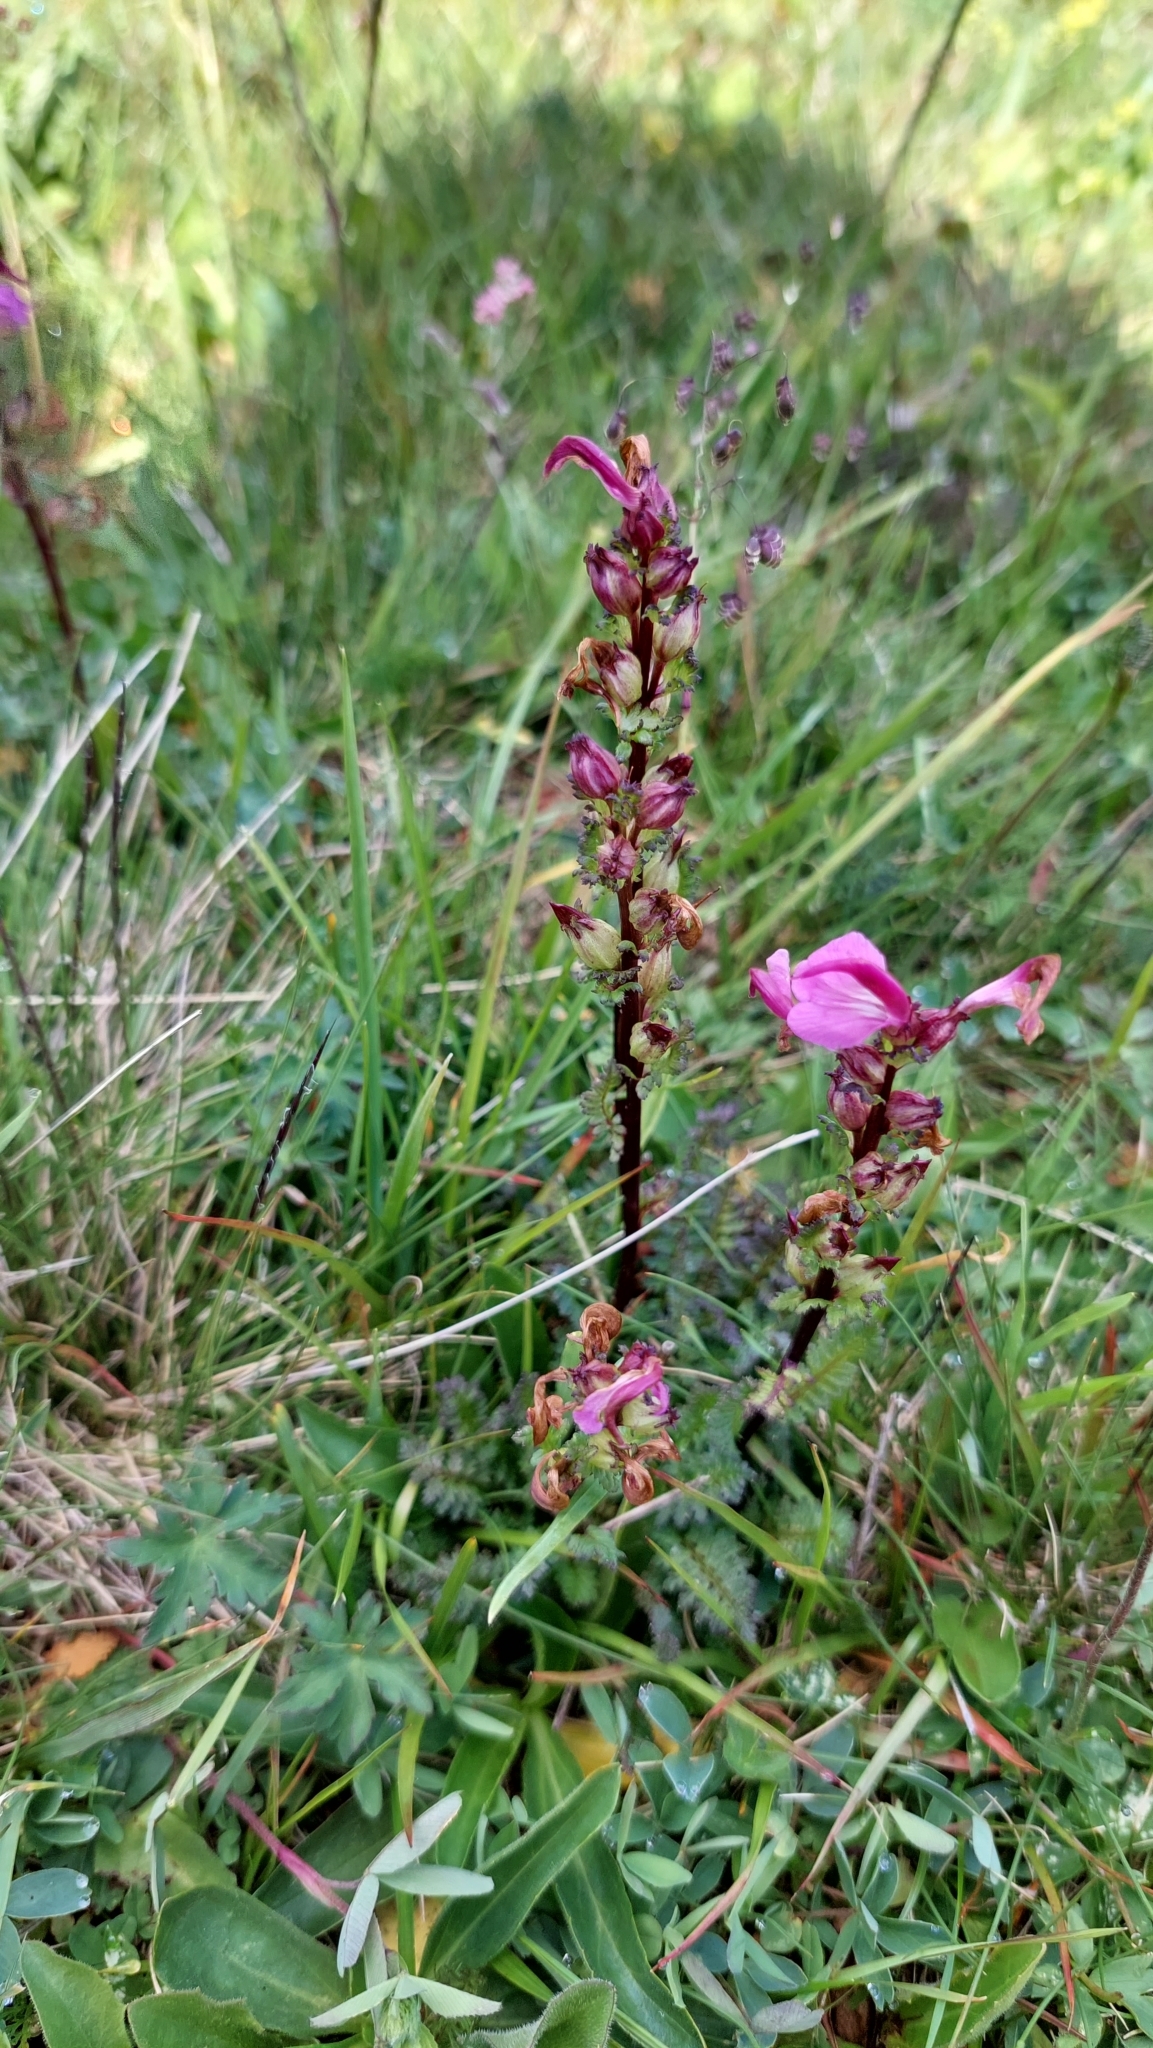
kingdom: Plantae
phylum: Tracheophyta
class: Magnoliopsida
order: Lamiales
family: Orobanchaceae
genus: Pedicularis
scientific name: Pedicularis nordmanniana
